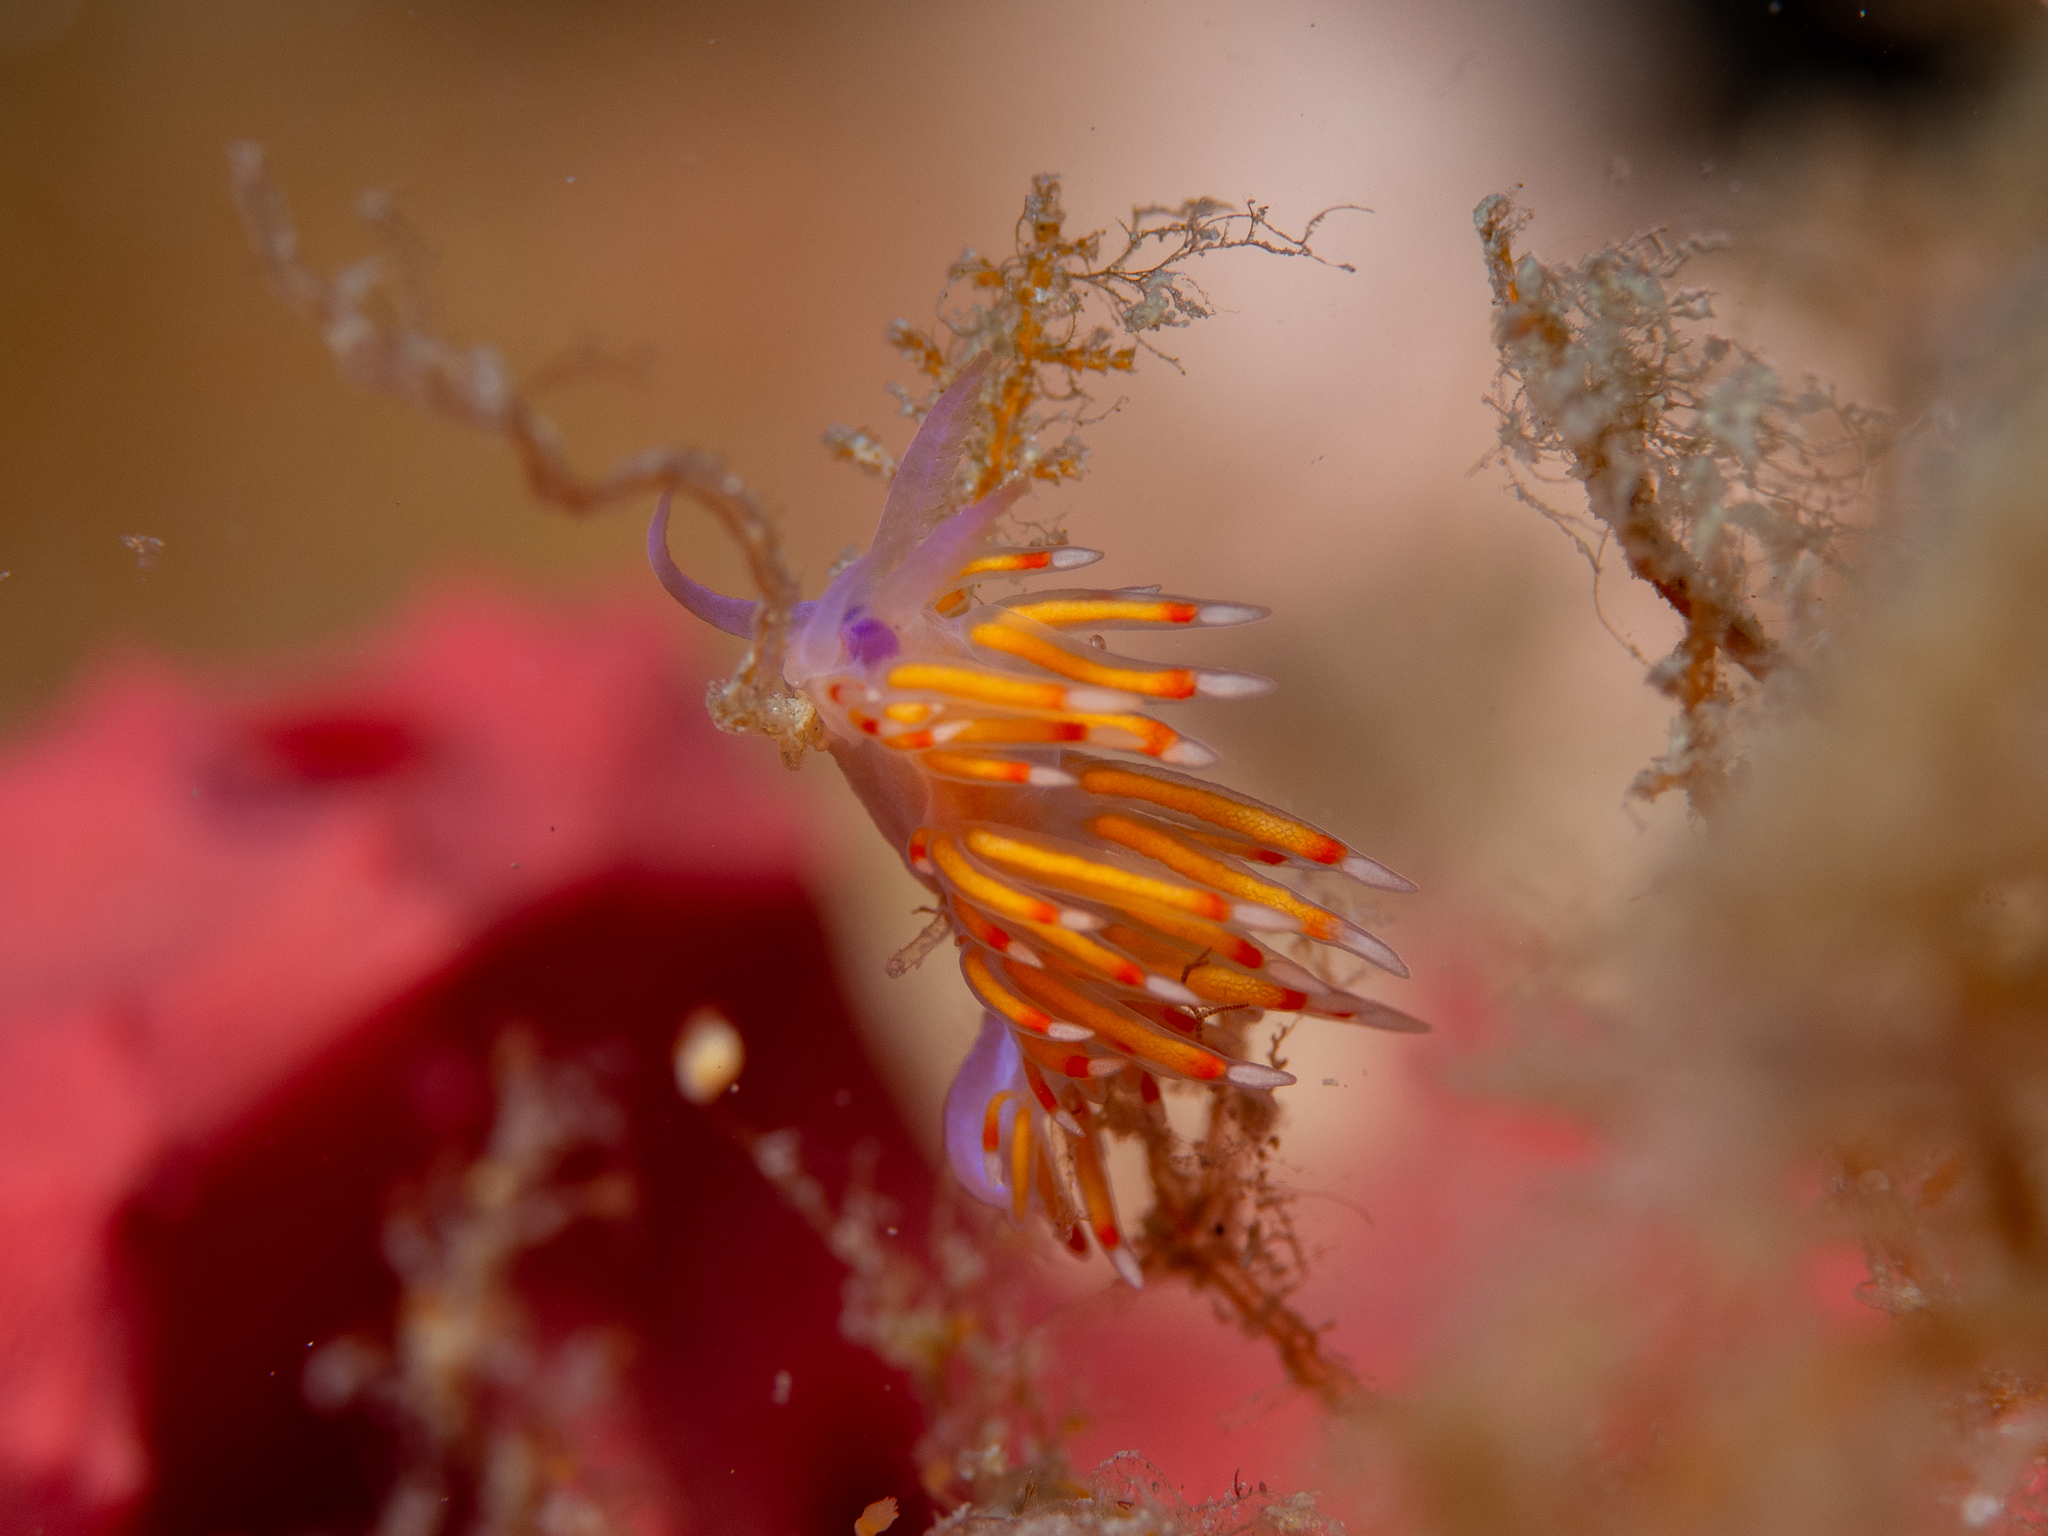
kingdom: Animalia
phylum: Mollusca
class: Gastropoda
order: Nudibranchia
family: Flabellinidae
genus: Coryphellina
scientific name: Coryphellina poenicia
